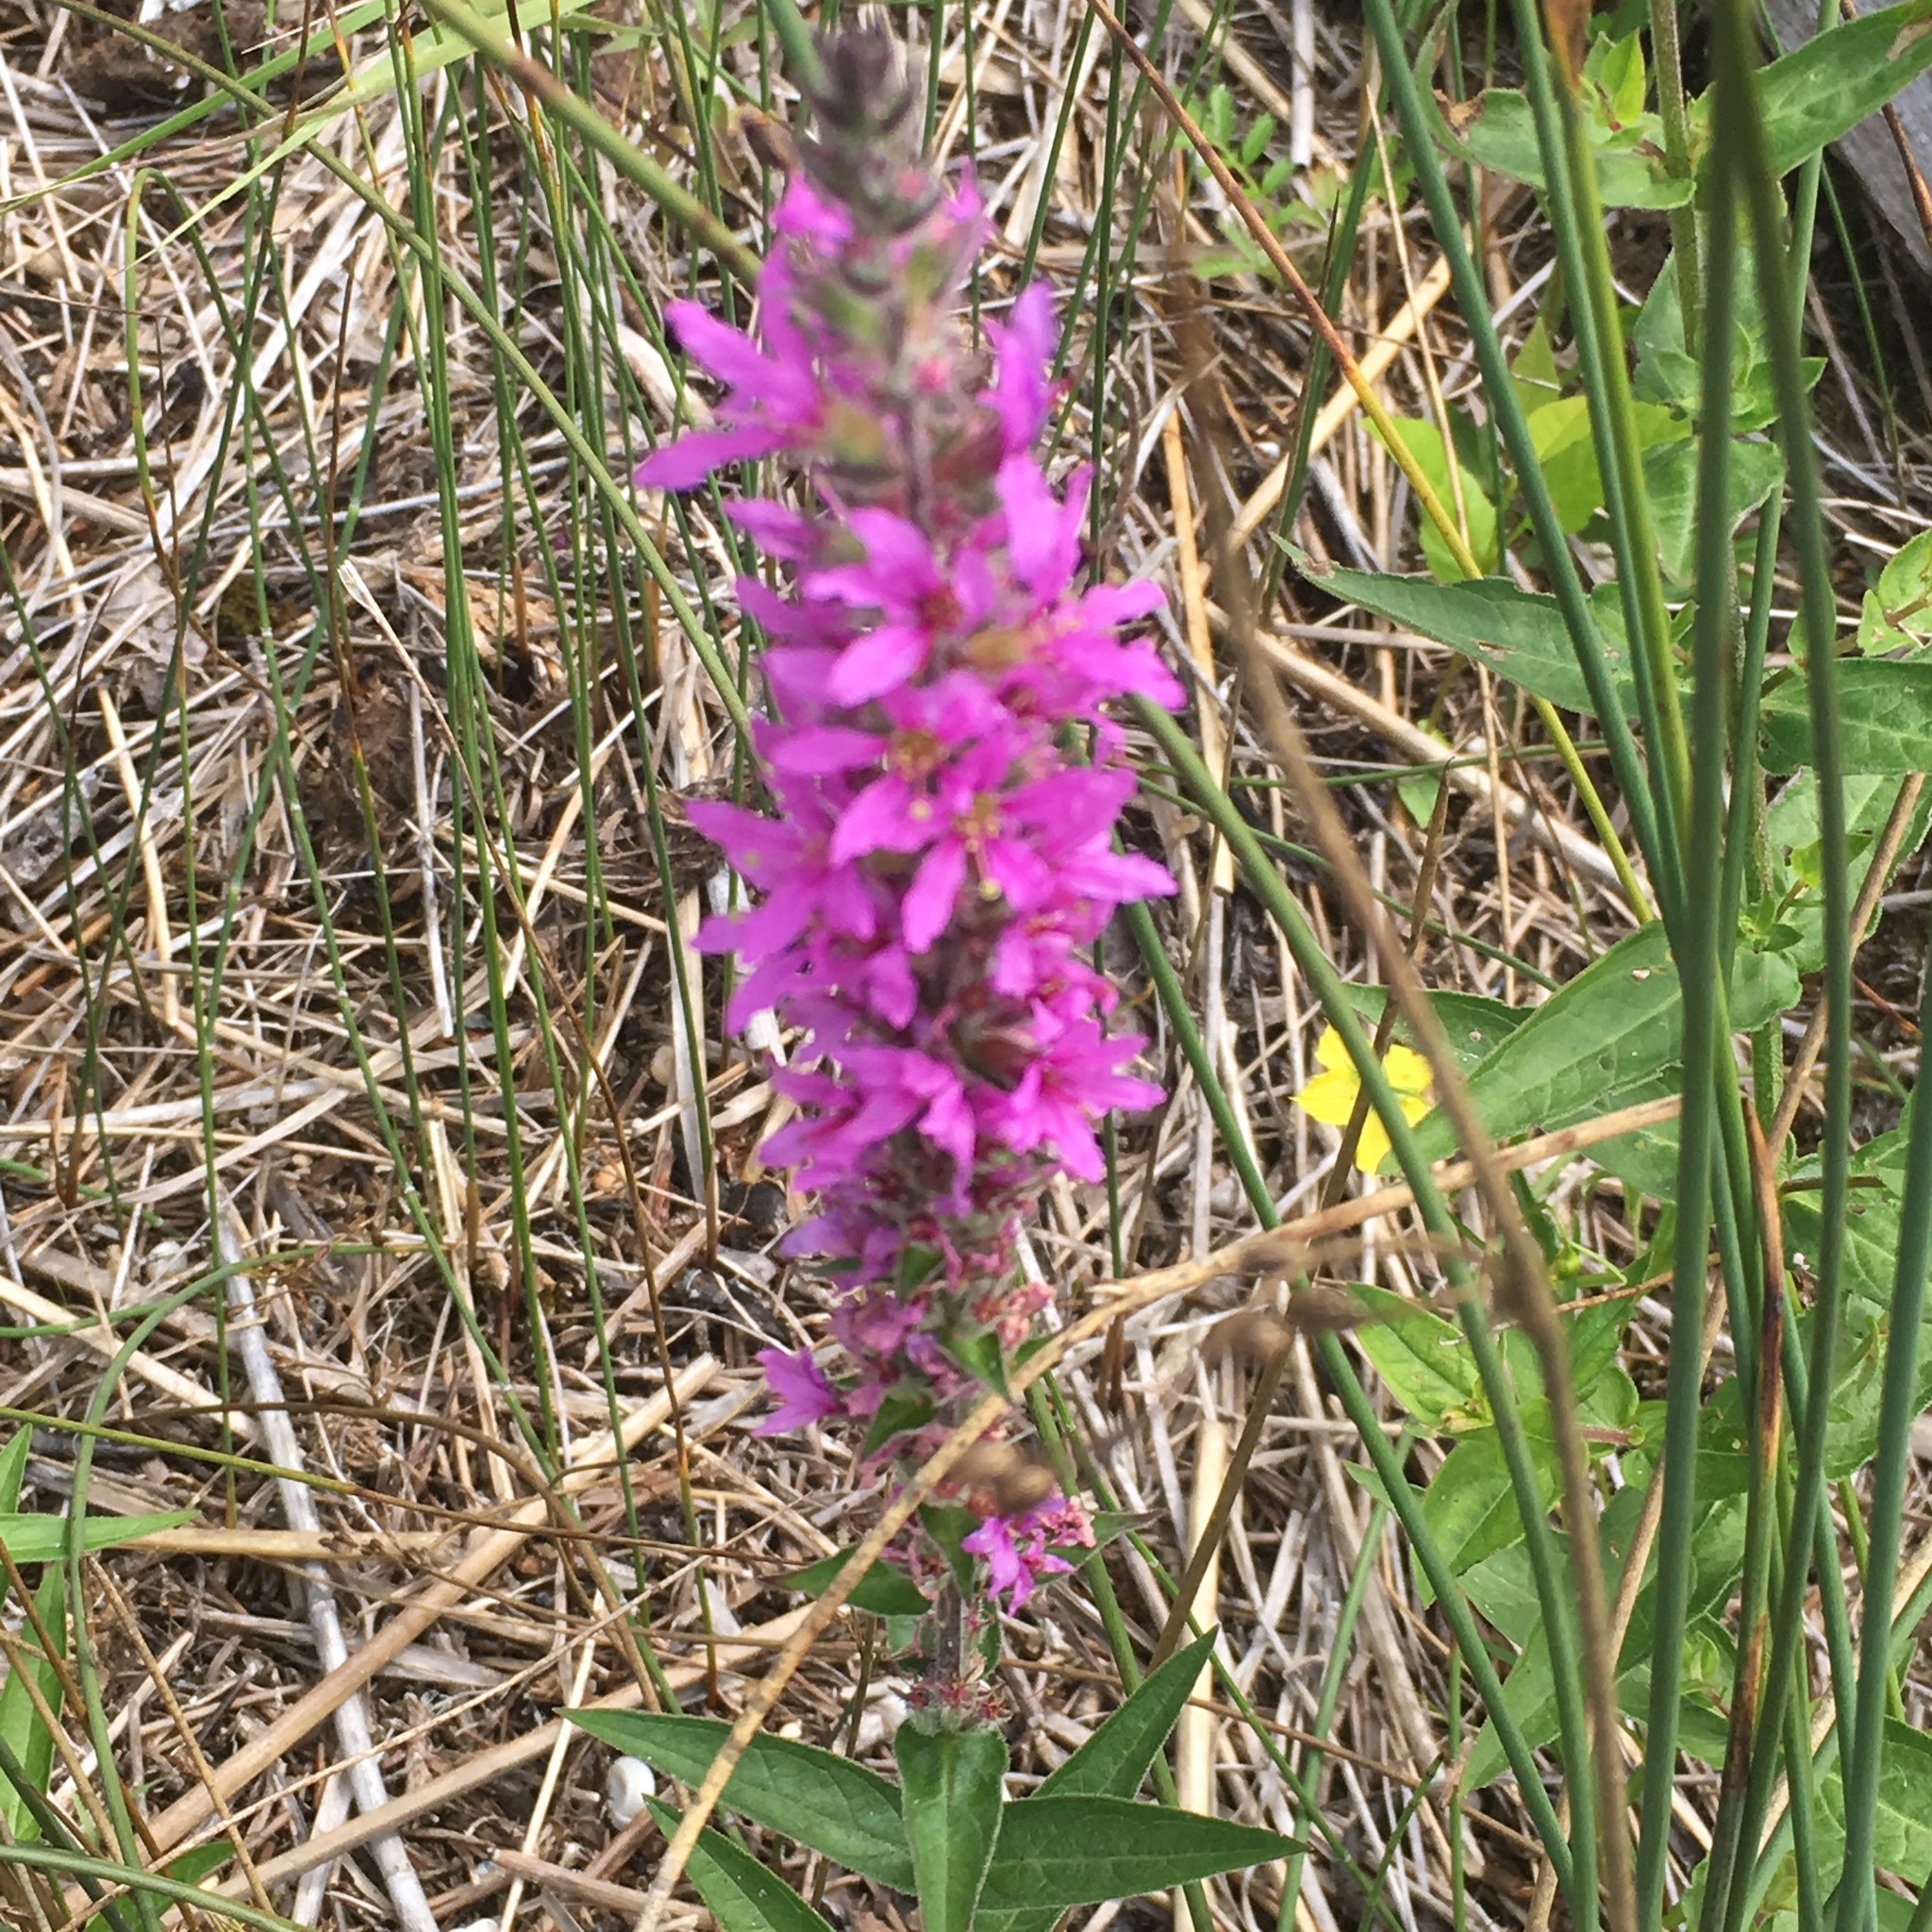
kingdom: Plantae
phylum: Tracheophyta
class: Magnoliopsida
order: Myrtales
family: Lythraceae
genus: Lythrum
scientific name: Lythrum salicaria
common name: Purple loosestrife
